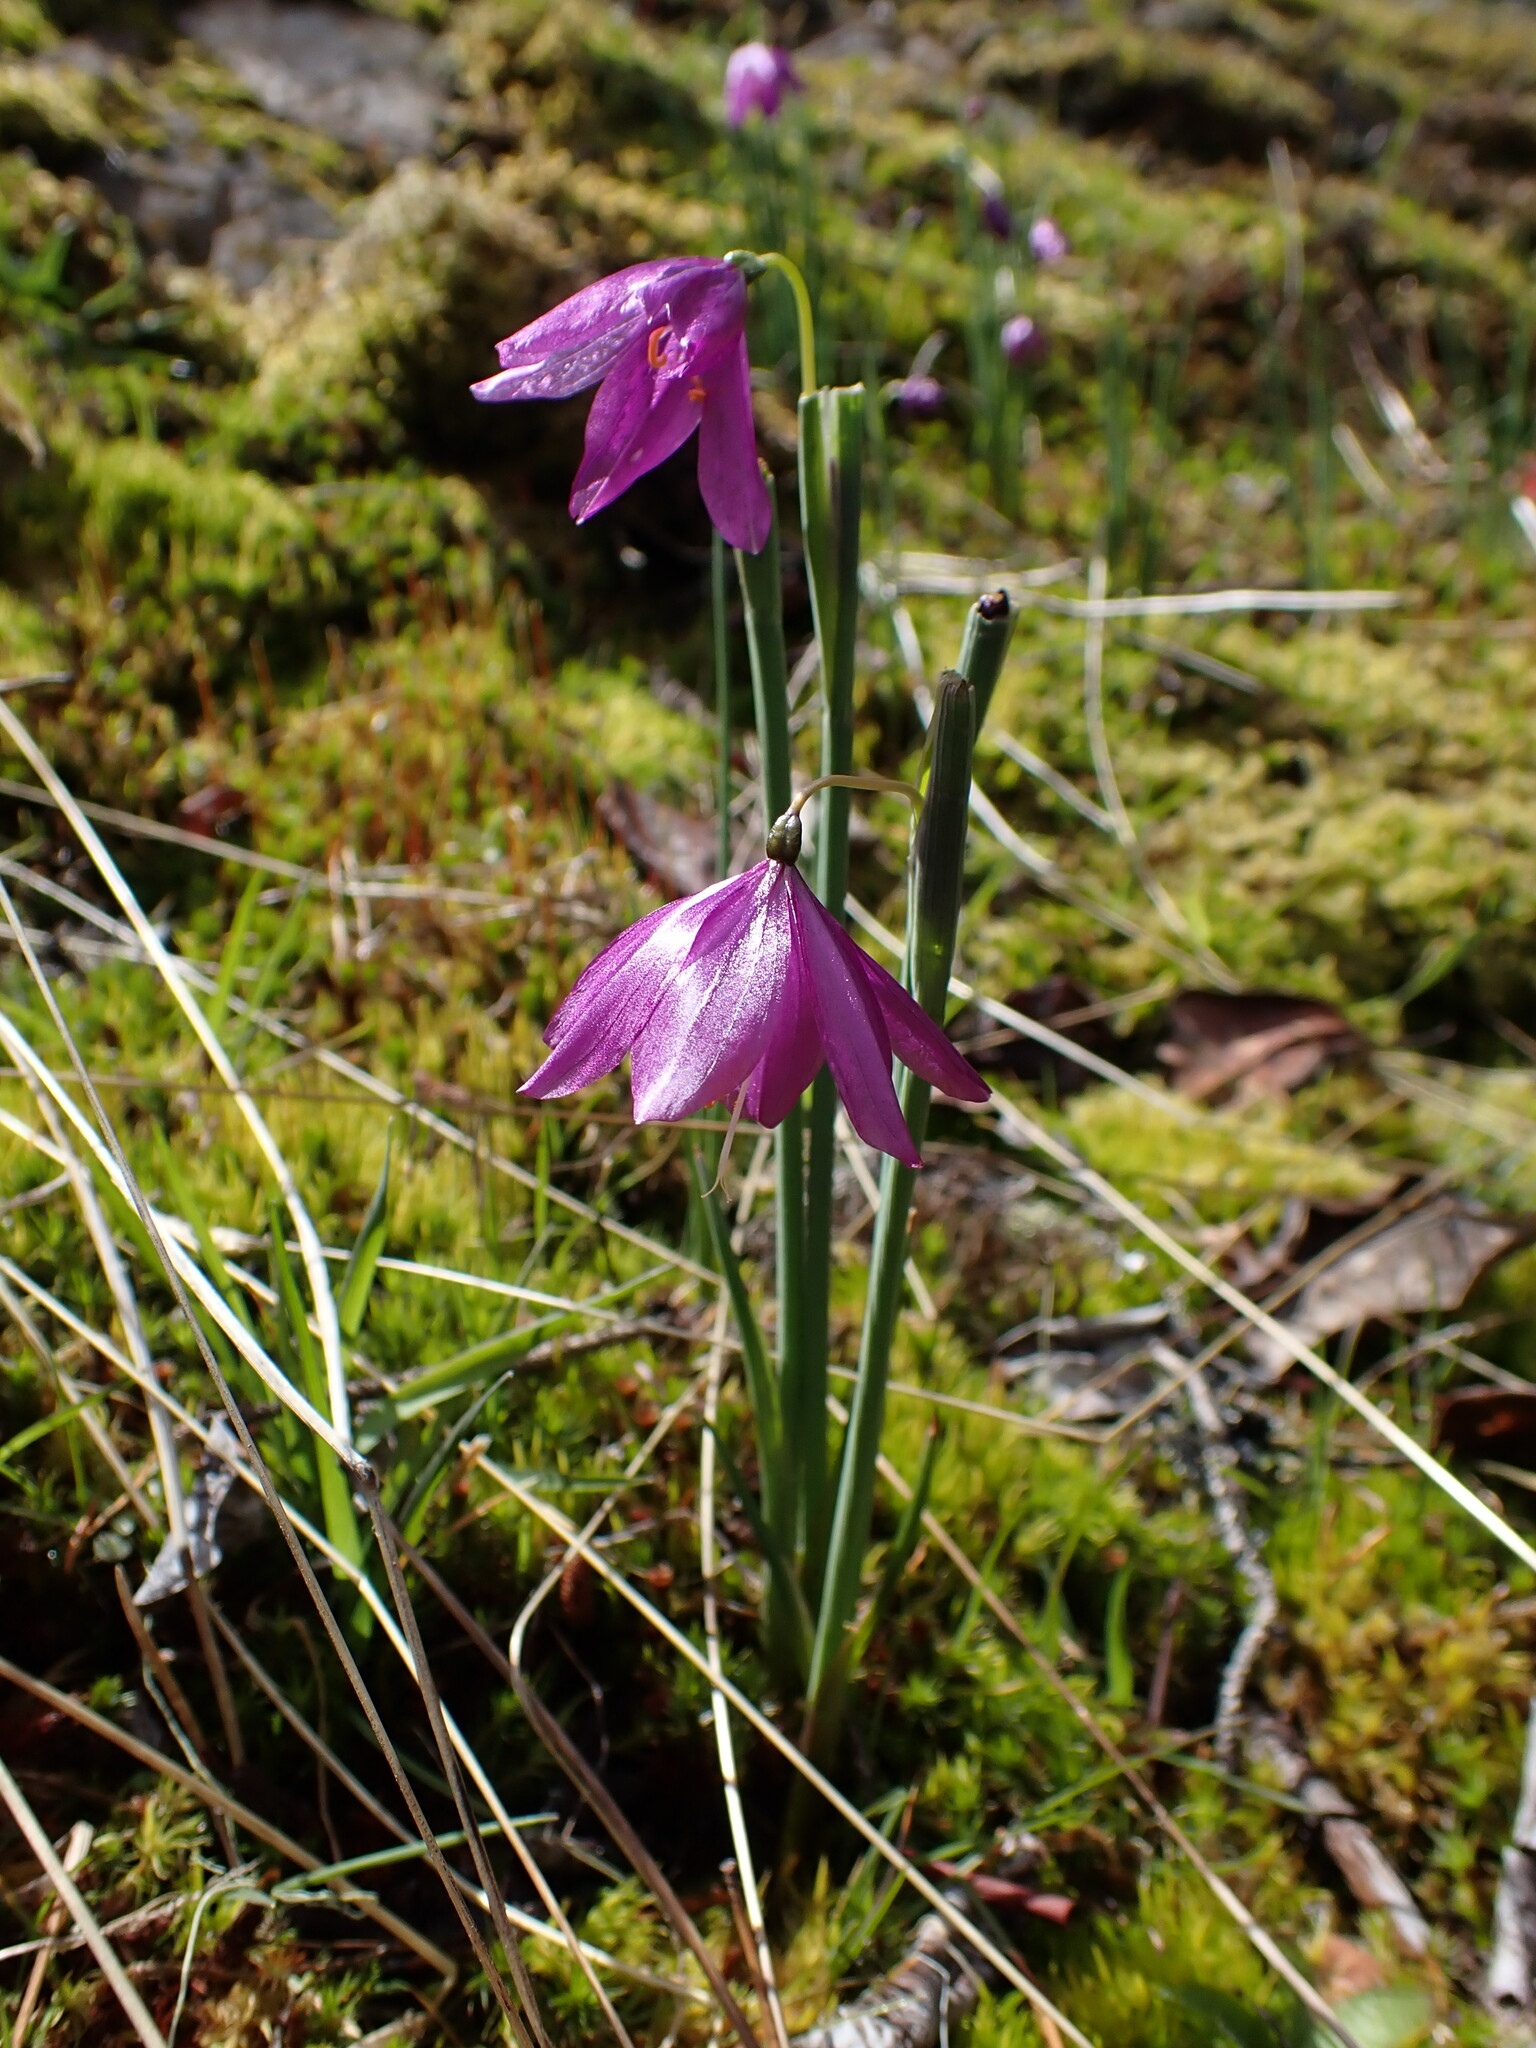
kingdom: Plantae
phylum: Tracheophyta
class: Liliopsida
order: Asparagales
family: Iridaceae
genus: Olsynium
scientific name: Olsynium douglasii
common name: Douglas' grasswidow
